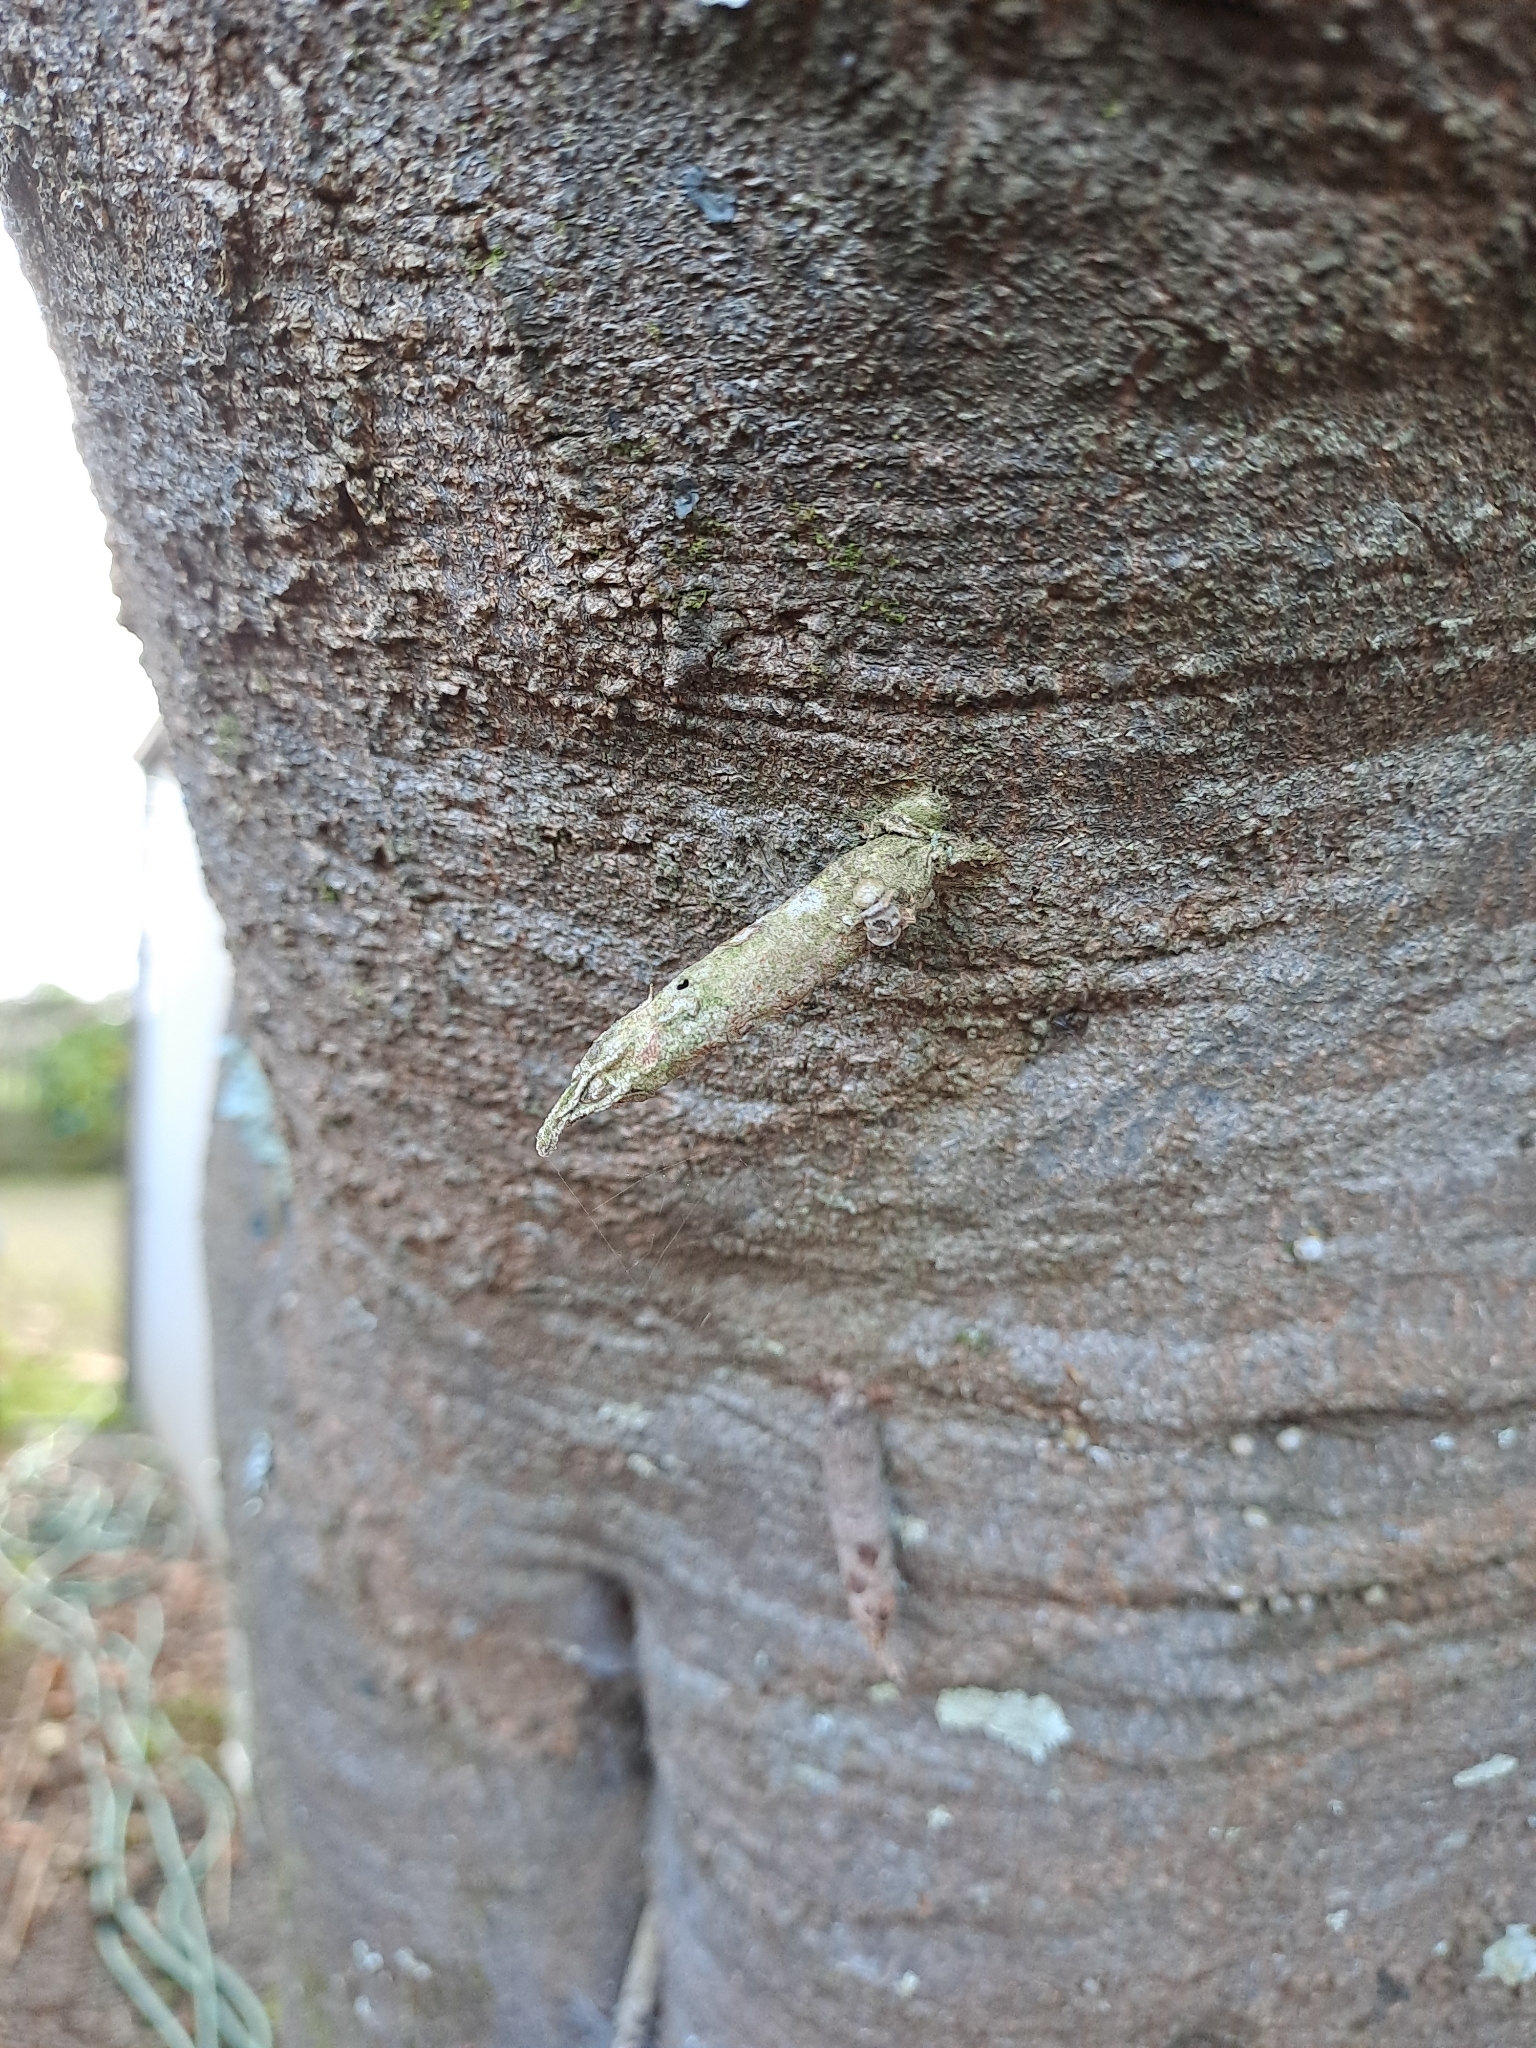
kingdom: Animalia
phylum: Arthropoda
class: Insecta
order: Lepidoptera
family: Psychidae
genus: Liothula
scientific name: Liothula omnivora
